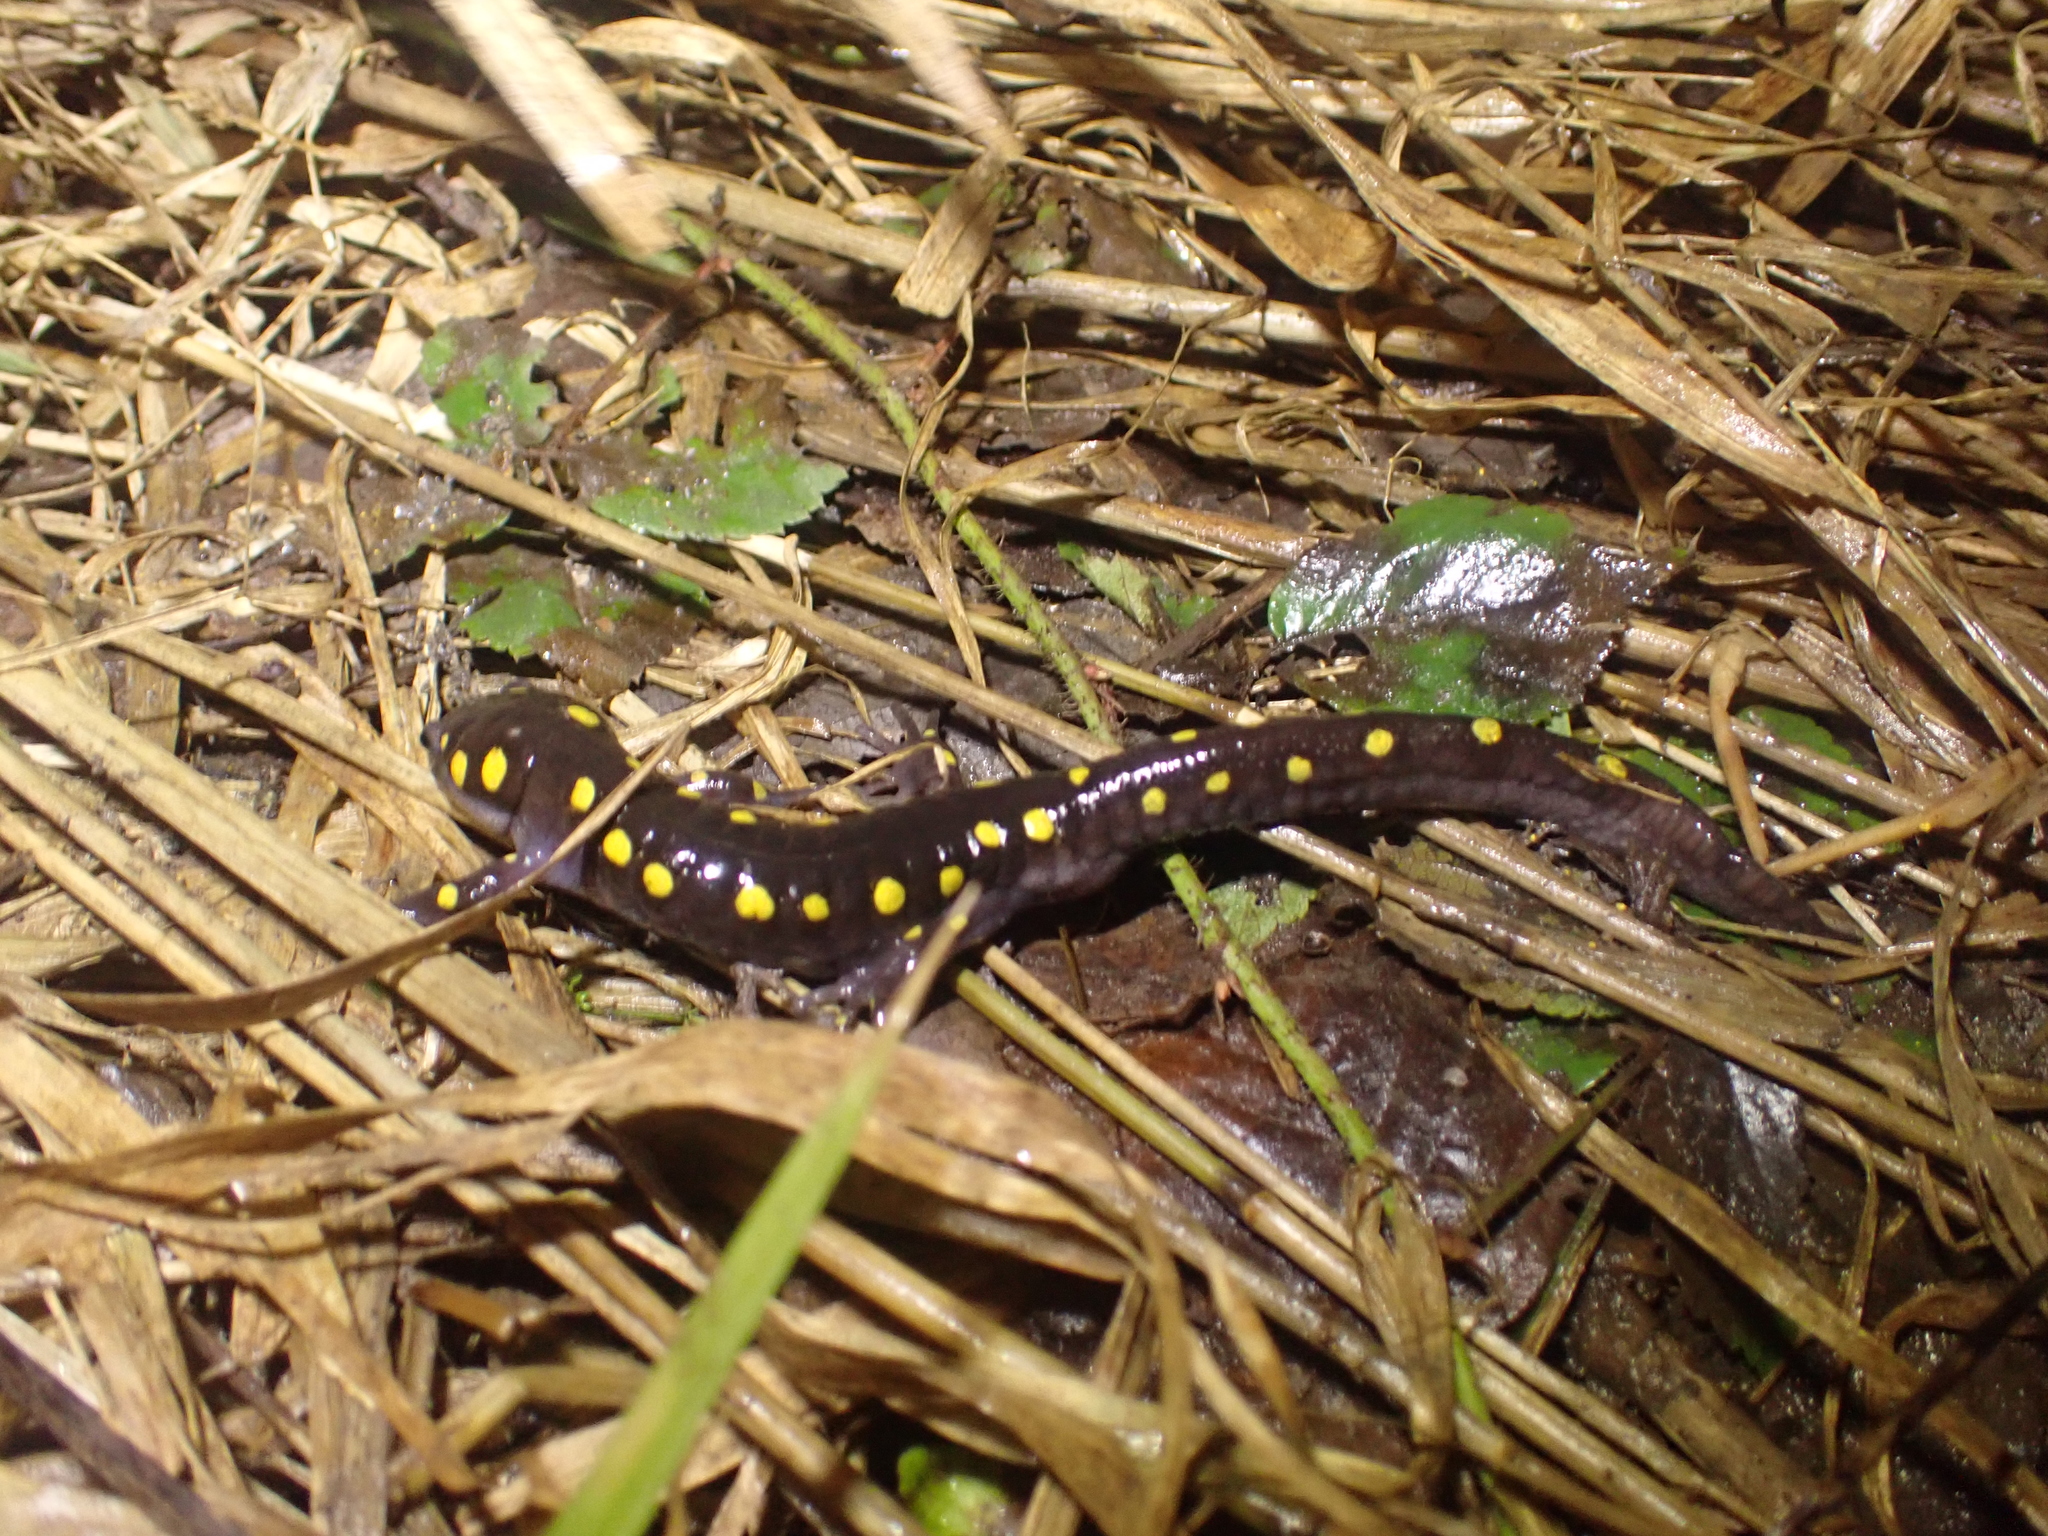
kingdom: Animalia
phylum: Chordata
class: Amphibia
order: Caudata
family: Ambystomatidae
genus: Ambystoma
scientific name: Ambystoma maculatum
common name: Spotted salamander
